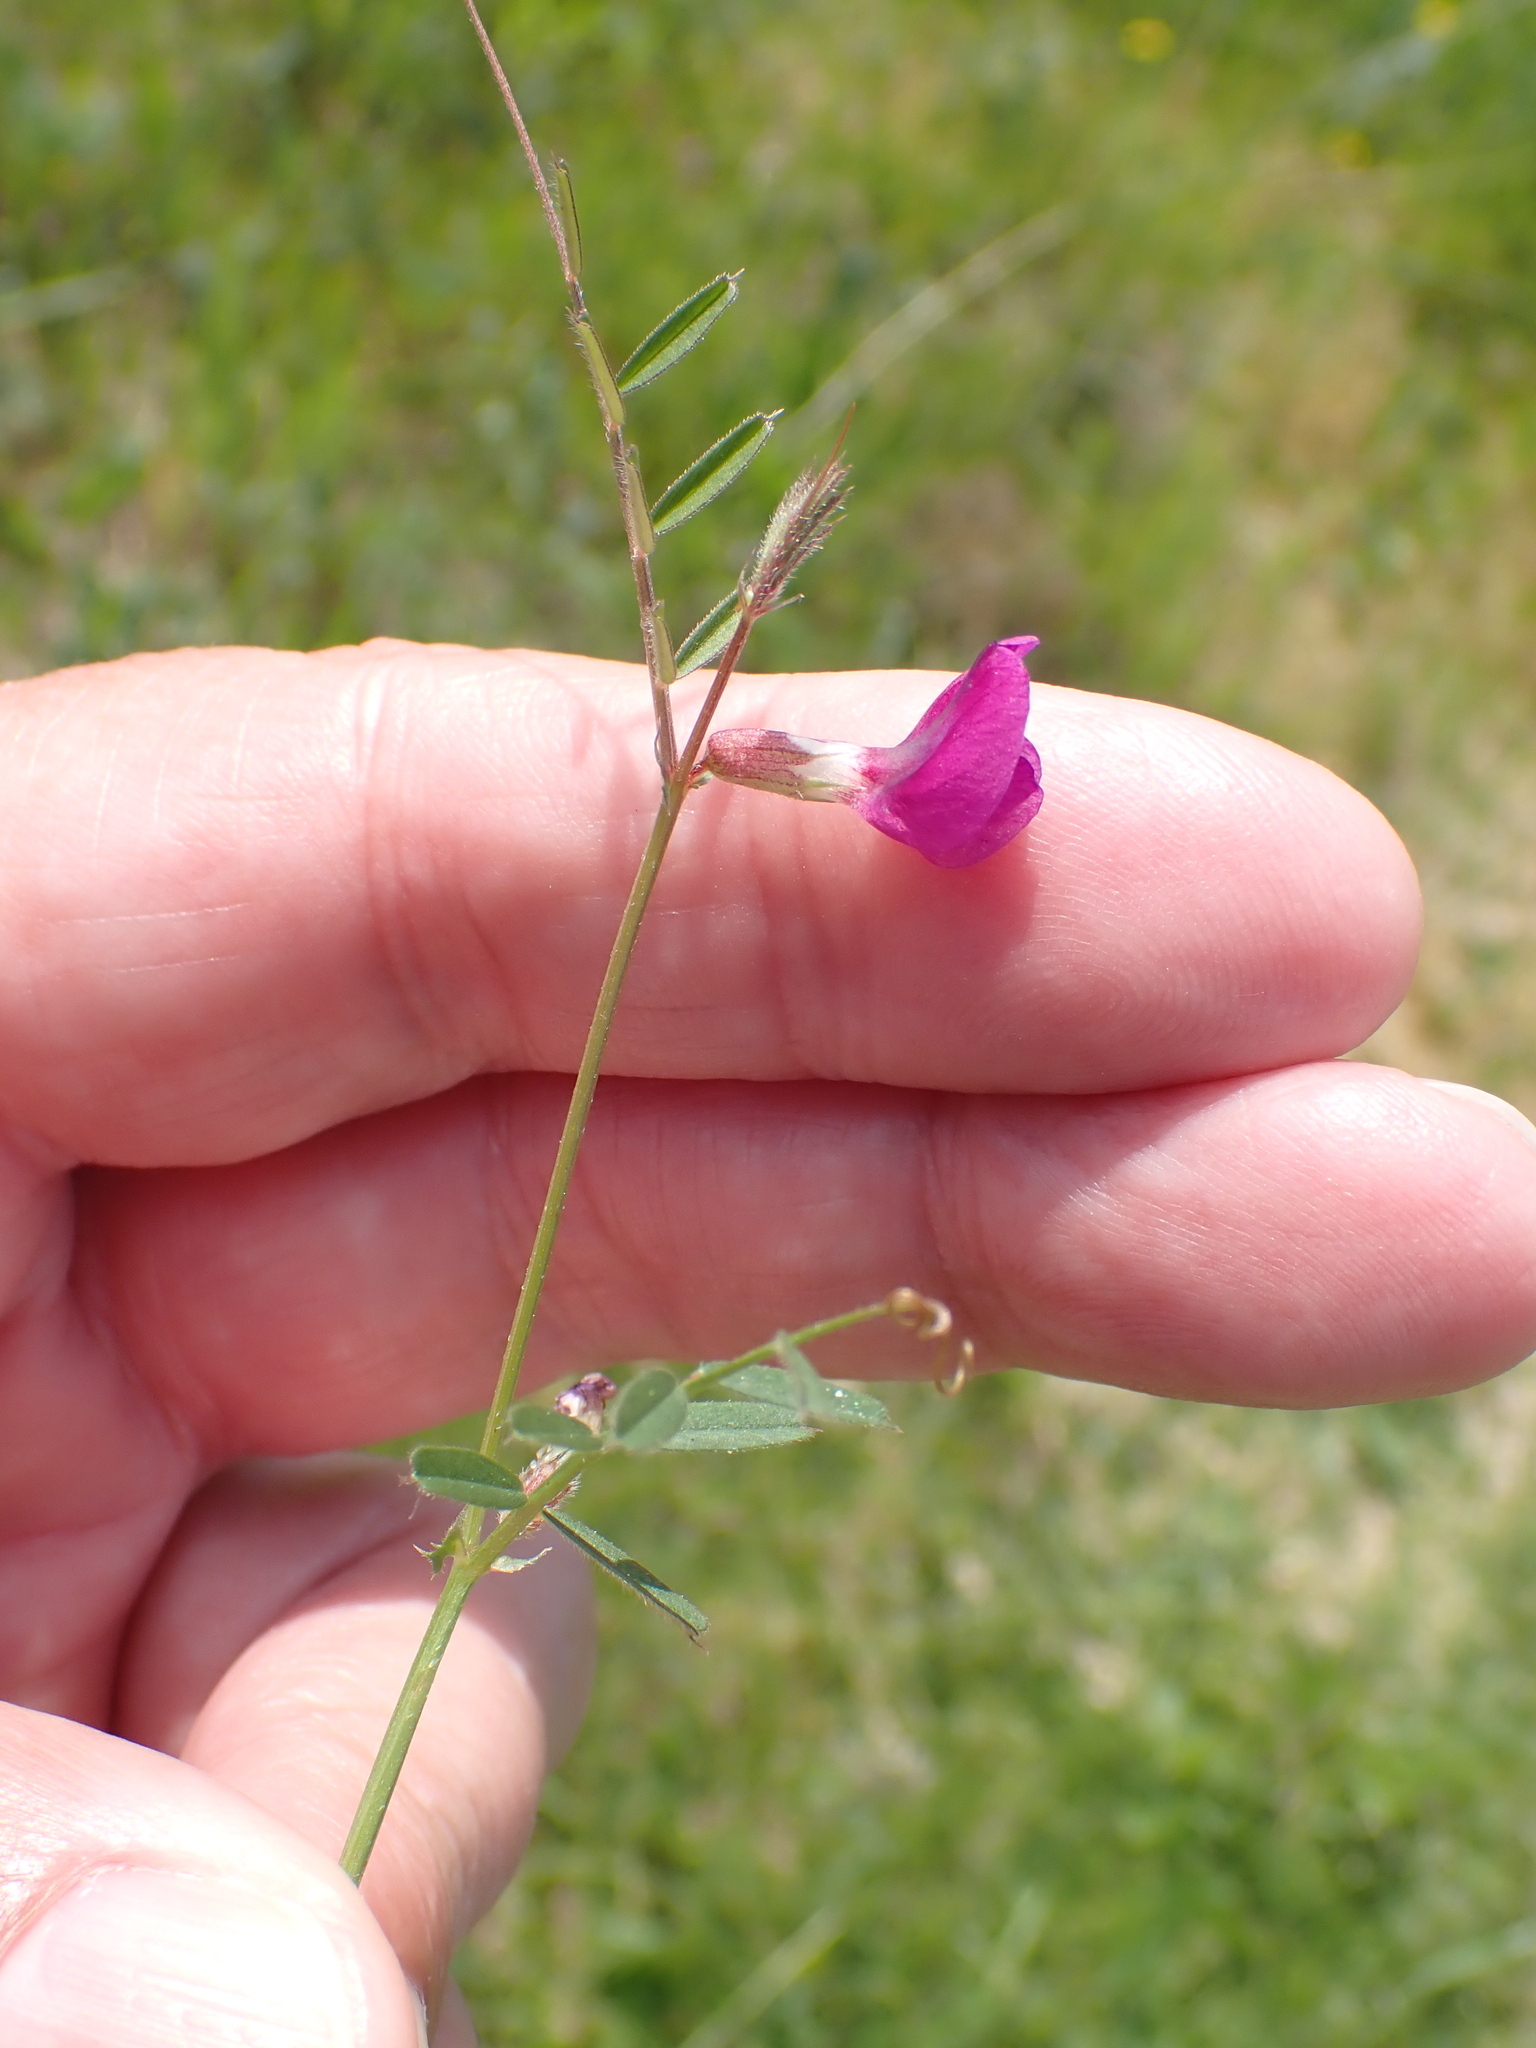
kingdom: Plantae
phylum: Tracheophyta
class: Magnoliopsida
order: Fabales
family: Fabaceae
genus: Vicia
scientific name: Vicia sativa
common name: Garden vetch
